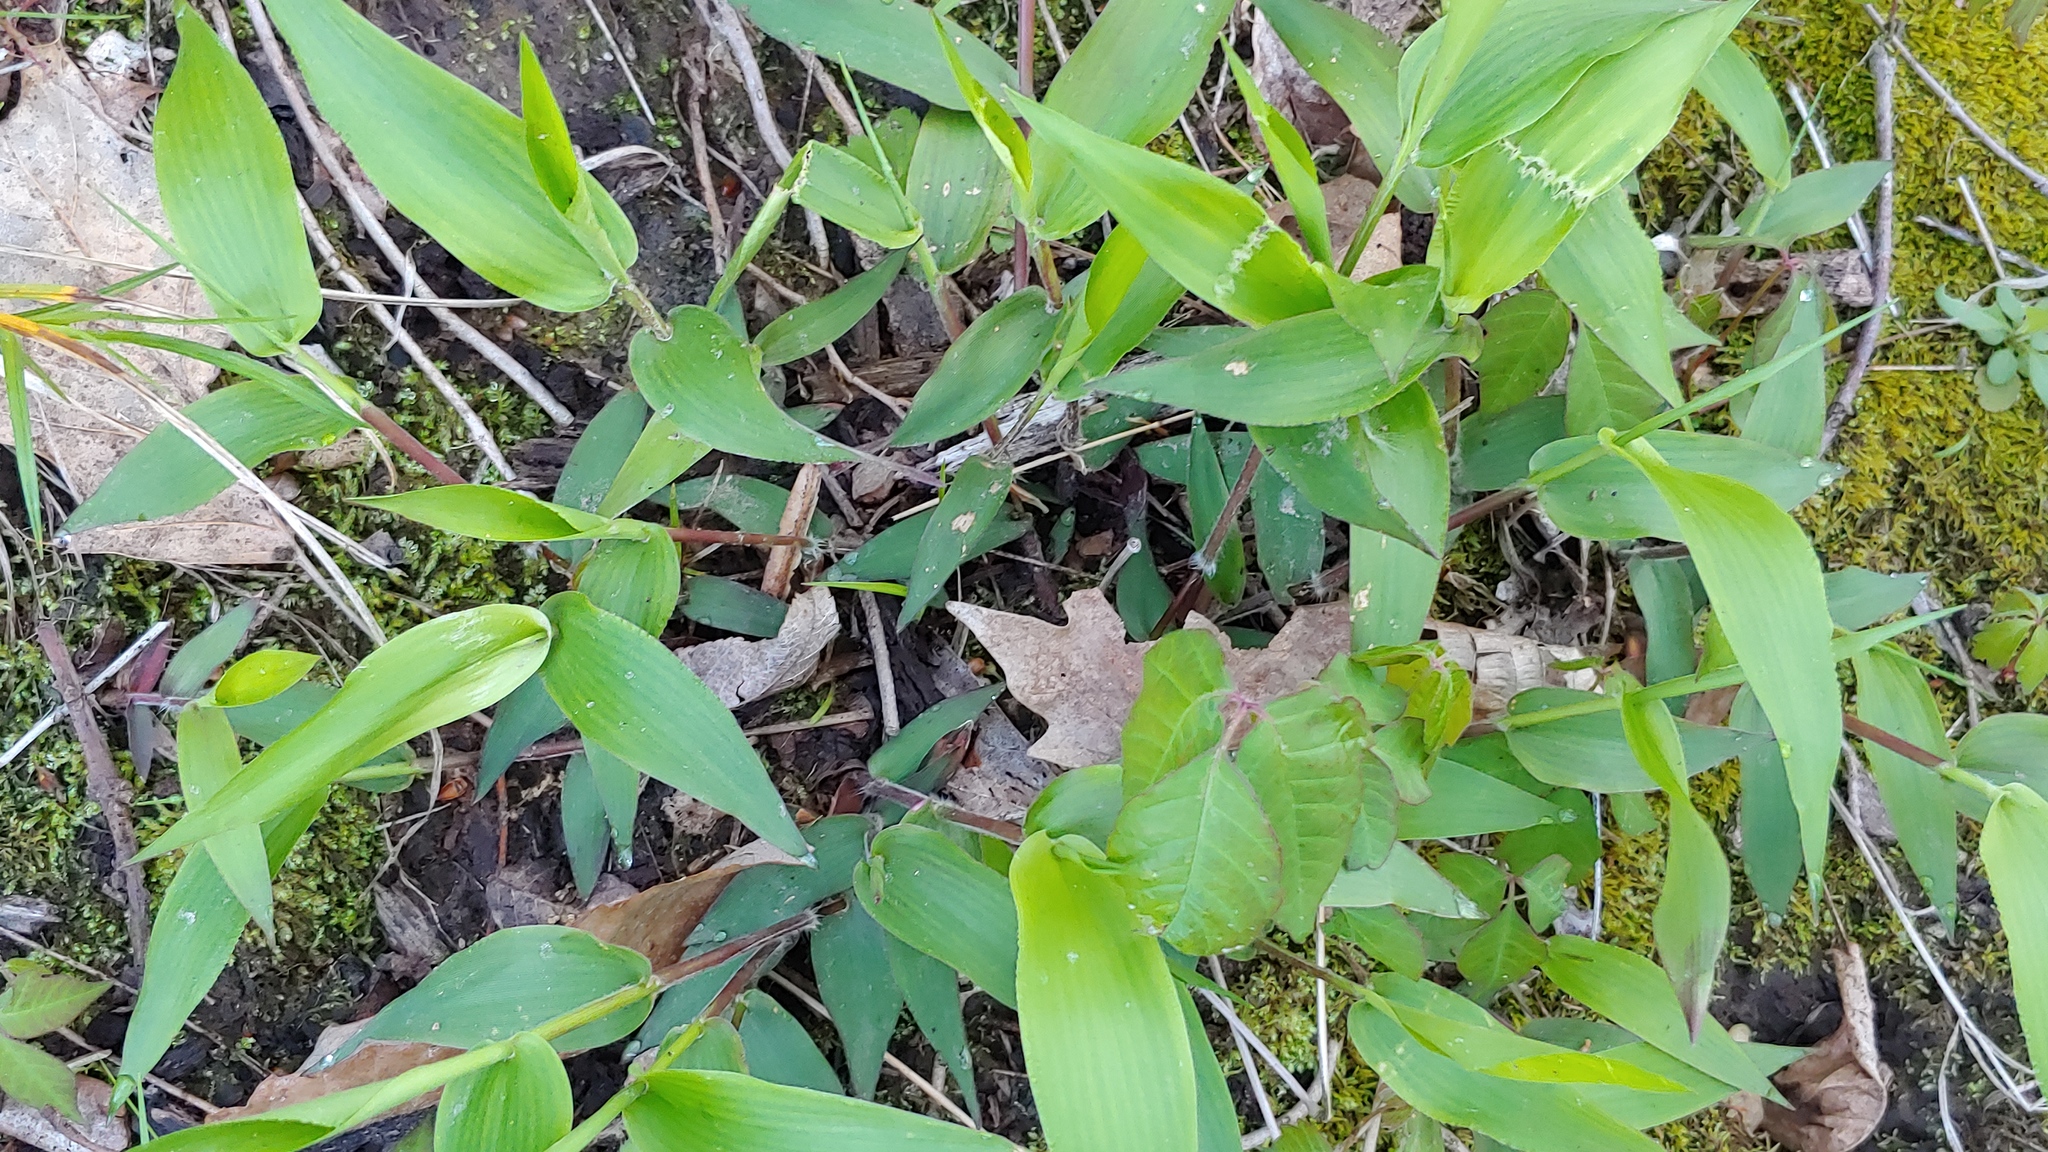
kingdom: Plantae
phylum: Tracheophyta
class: Liliopsida
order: Poales
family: Poaceae
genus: Dichanthelium
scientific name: Dichanthelium boscii
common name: Bosc's panic grass
